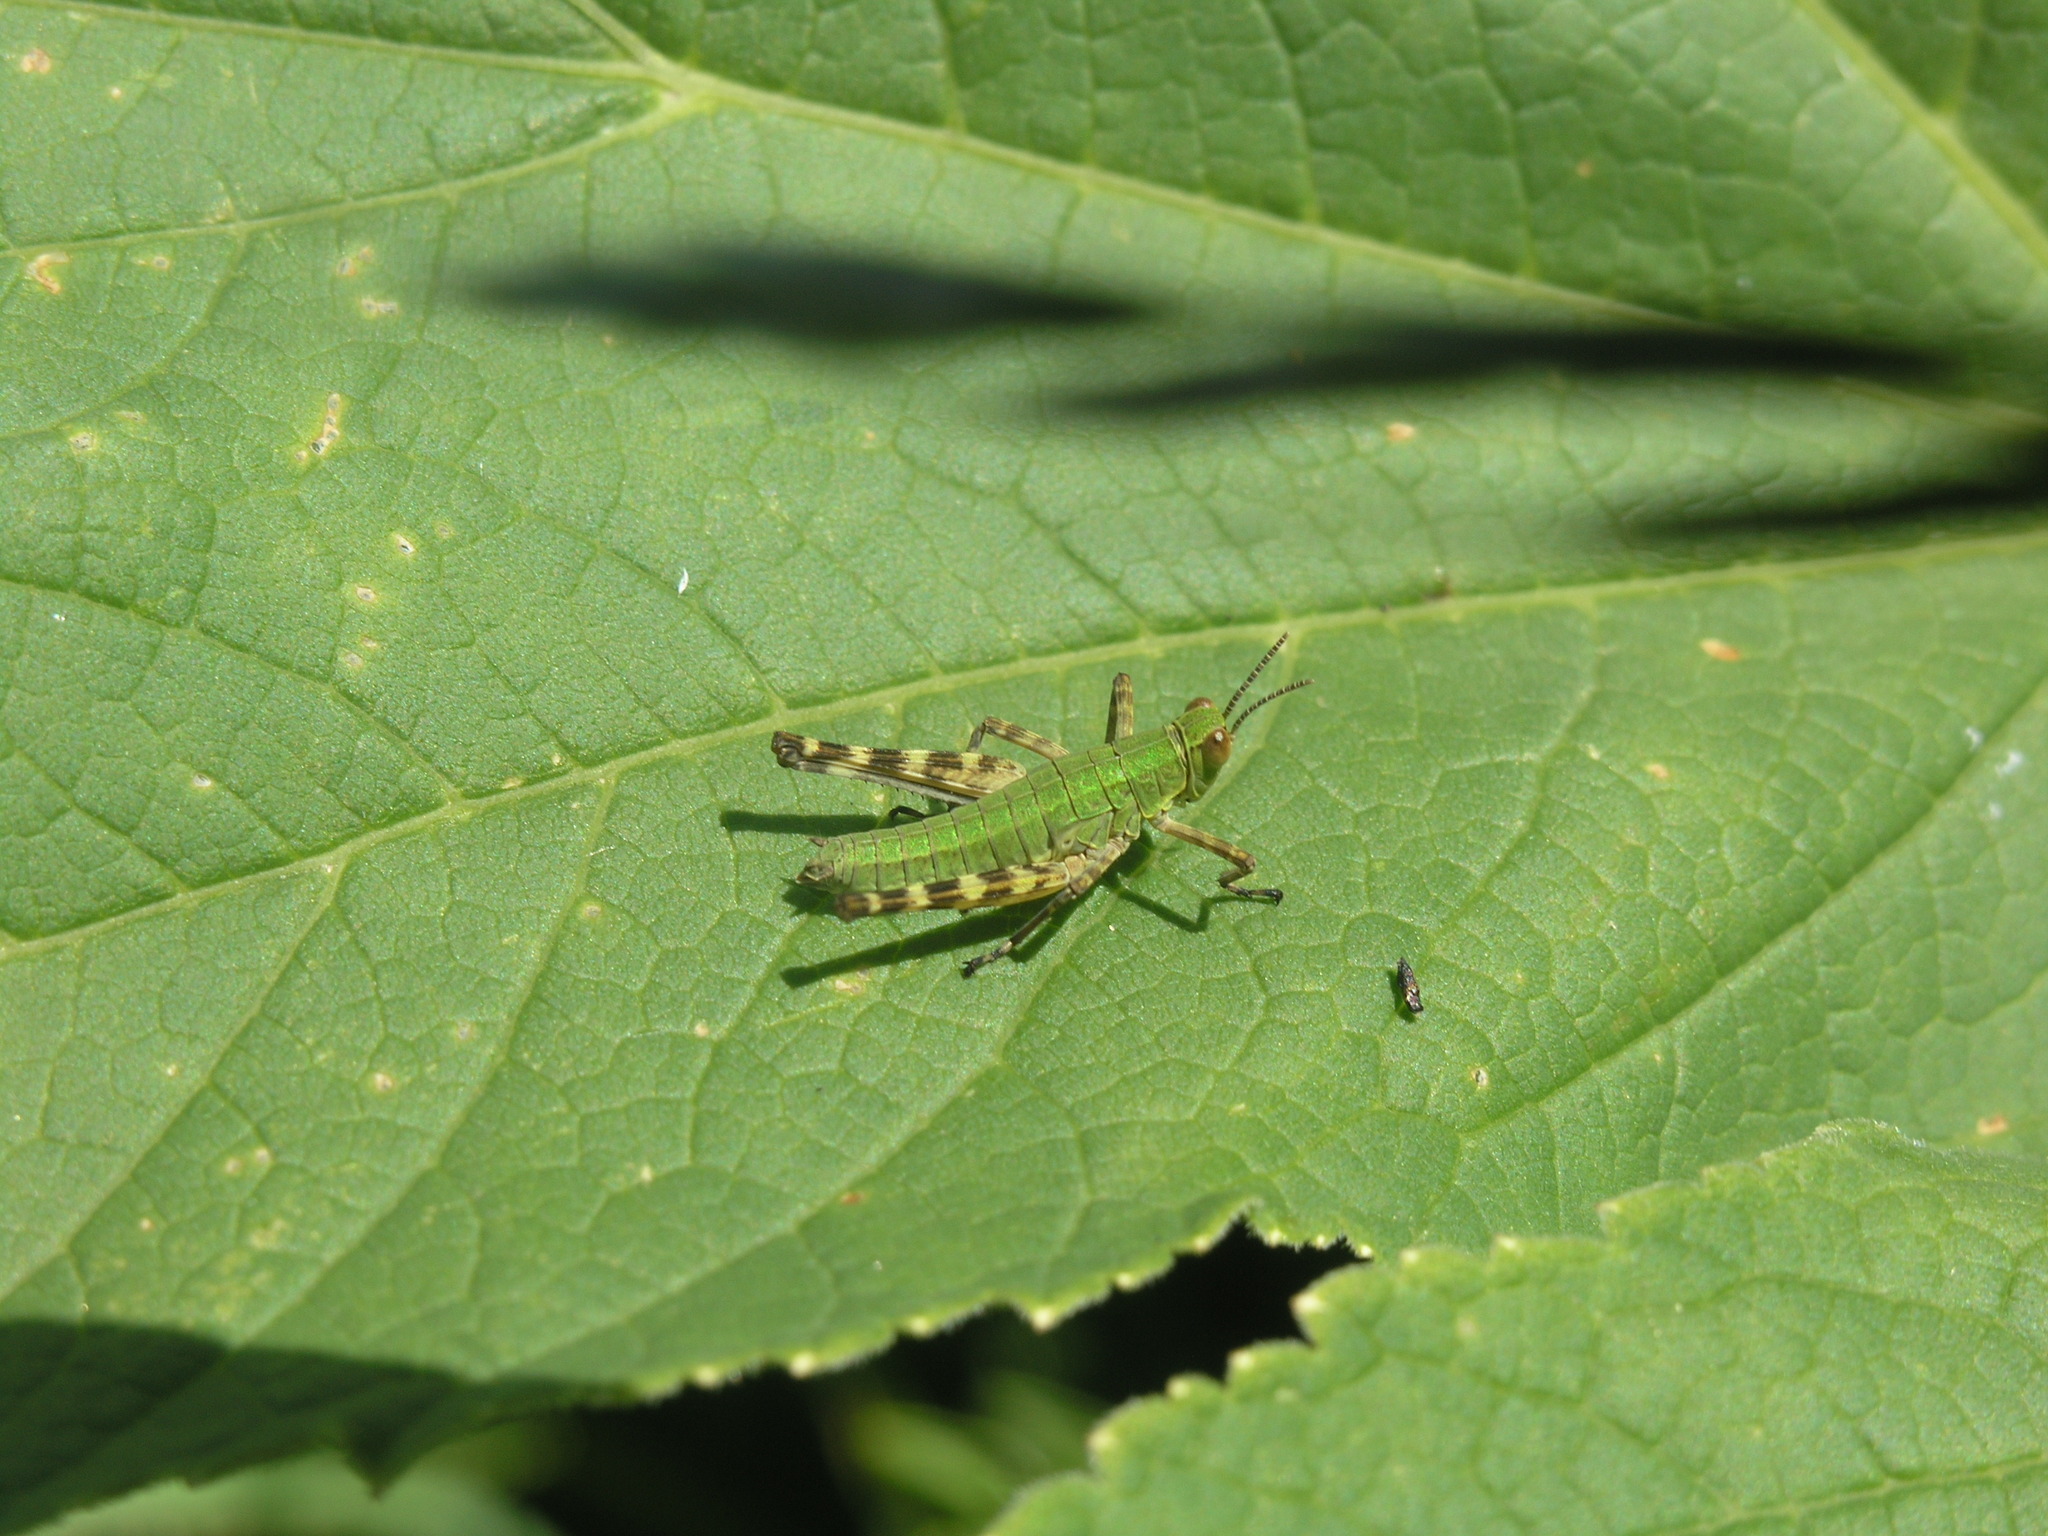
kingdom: Animalia
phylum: Arthropoda
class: Insecta
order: Orthoptera
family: Eumastacidae
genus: Gomphomastax
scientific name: Gomphomastax clavata
